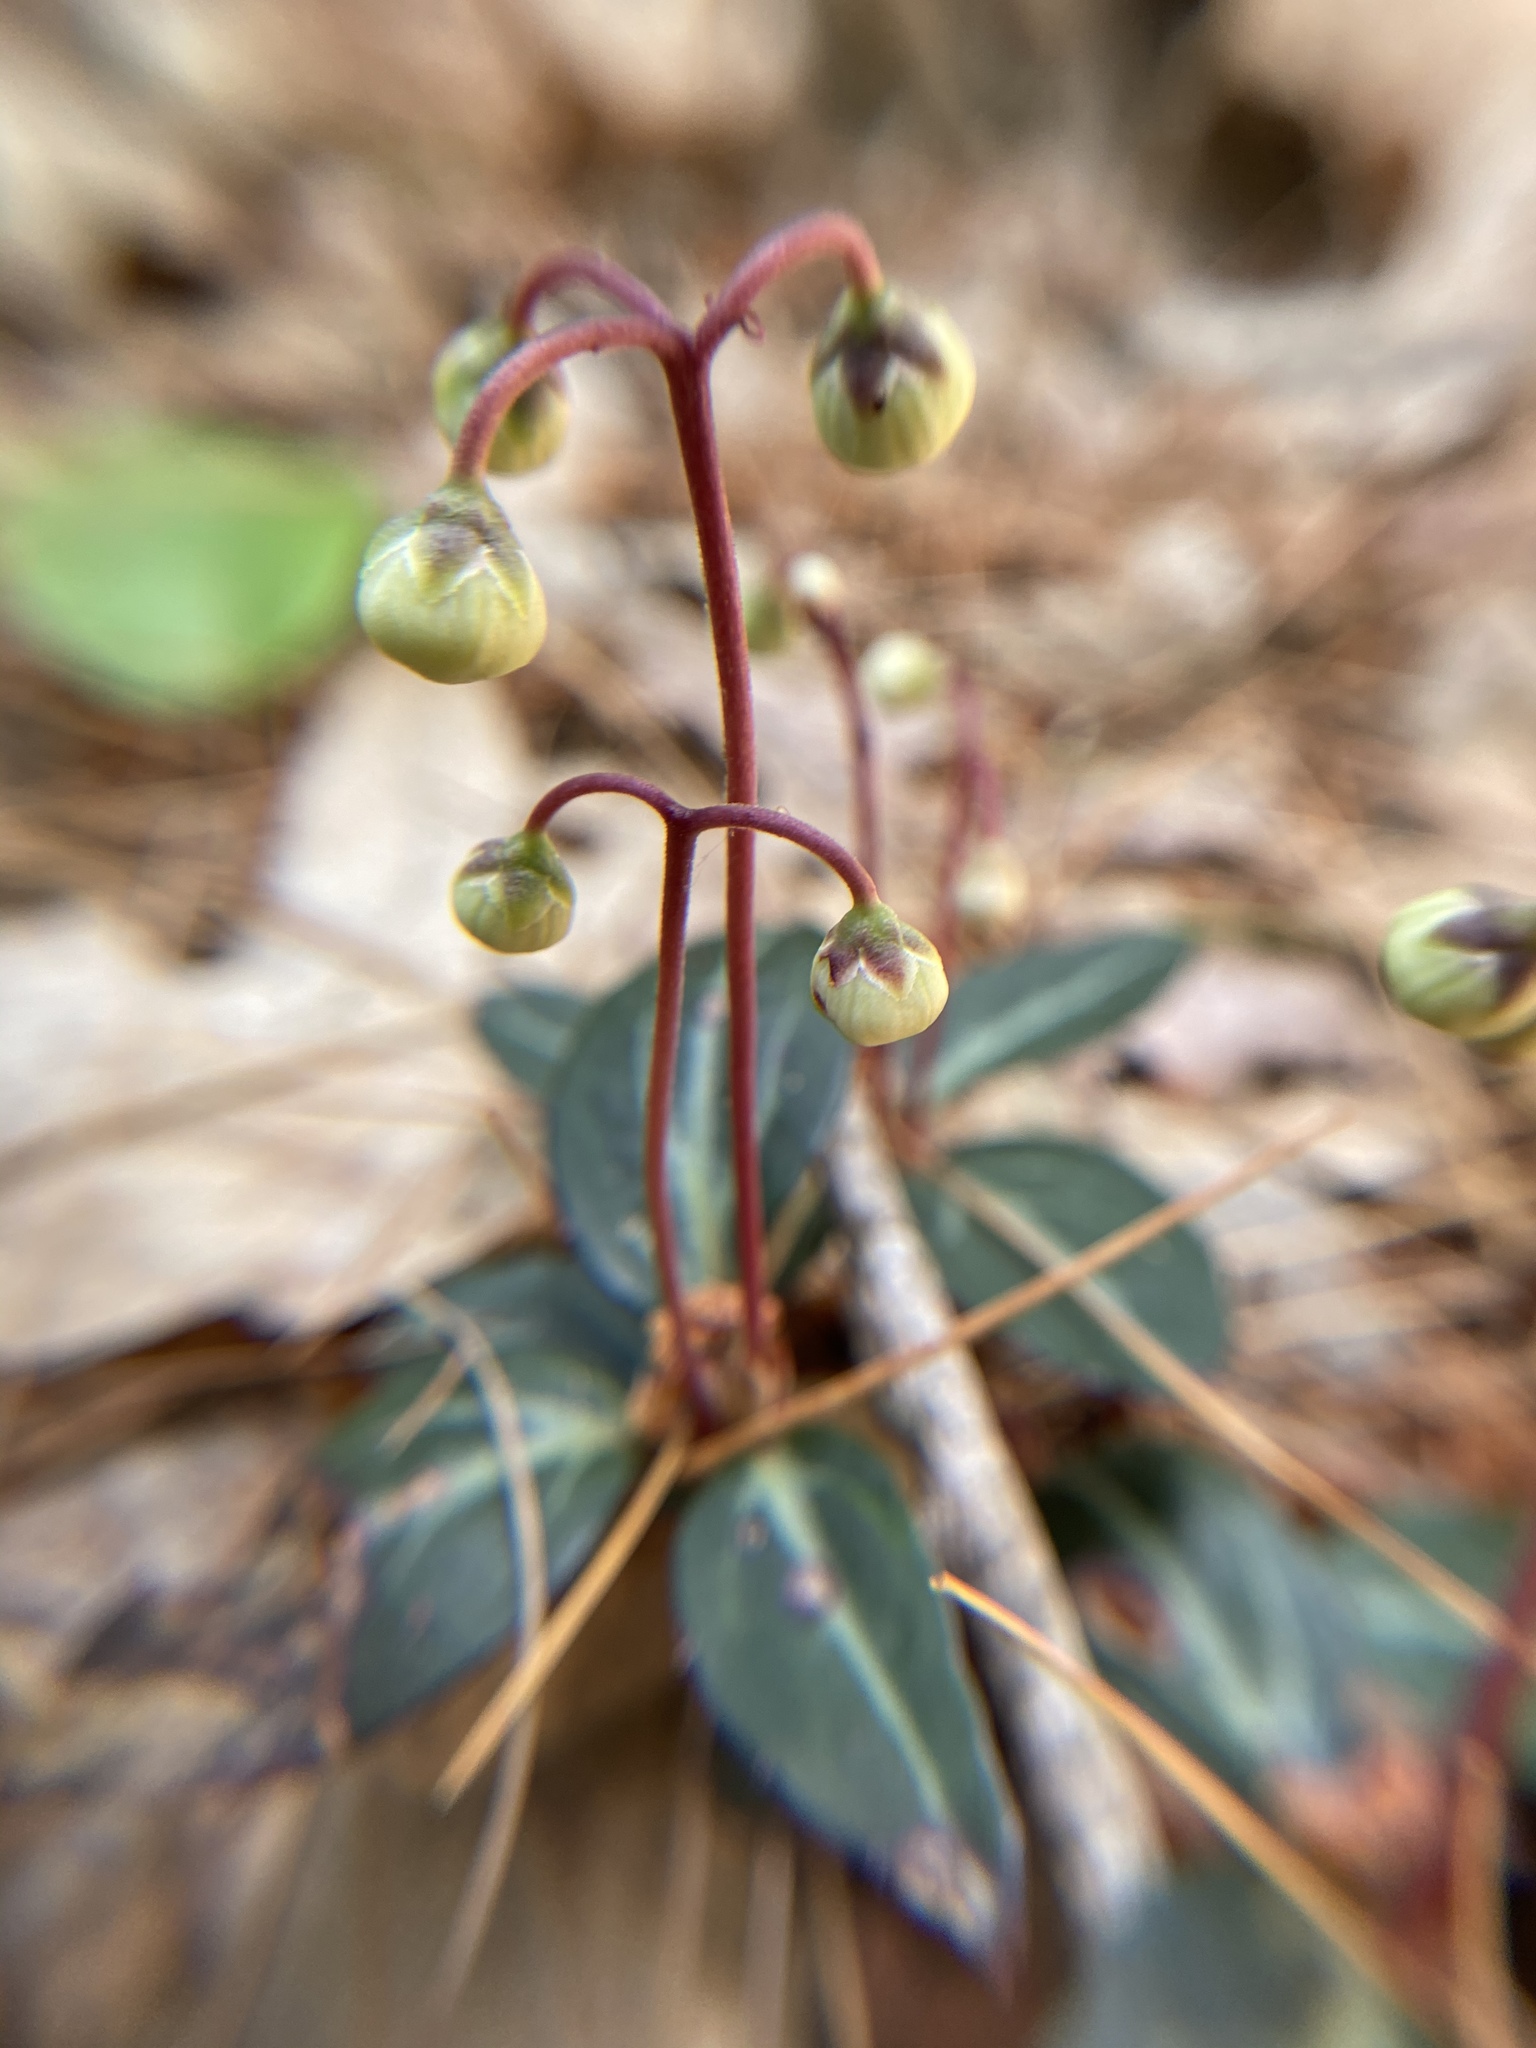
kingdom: Plantae
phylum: Tracheophyta
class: Magnoliopsida
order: Ericales
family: Ericaceae
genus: Chimaphila
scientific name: Chimaphila maculata
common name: Spotted pipsissewa
